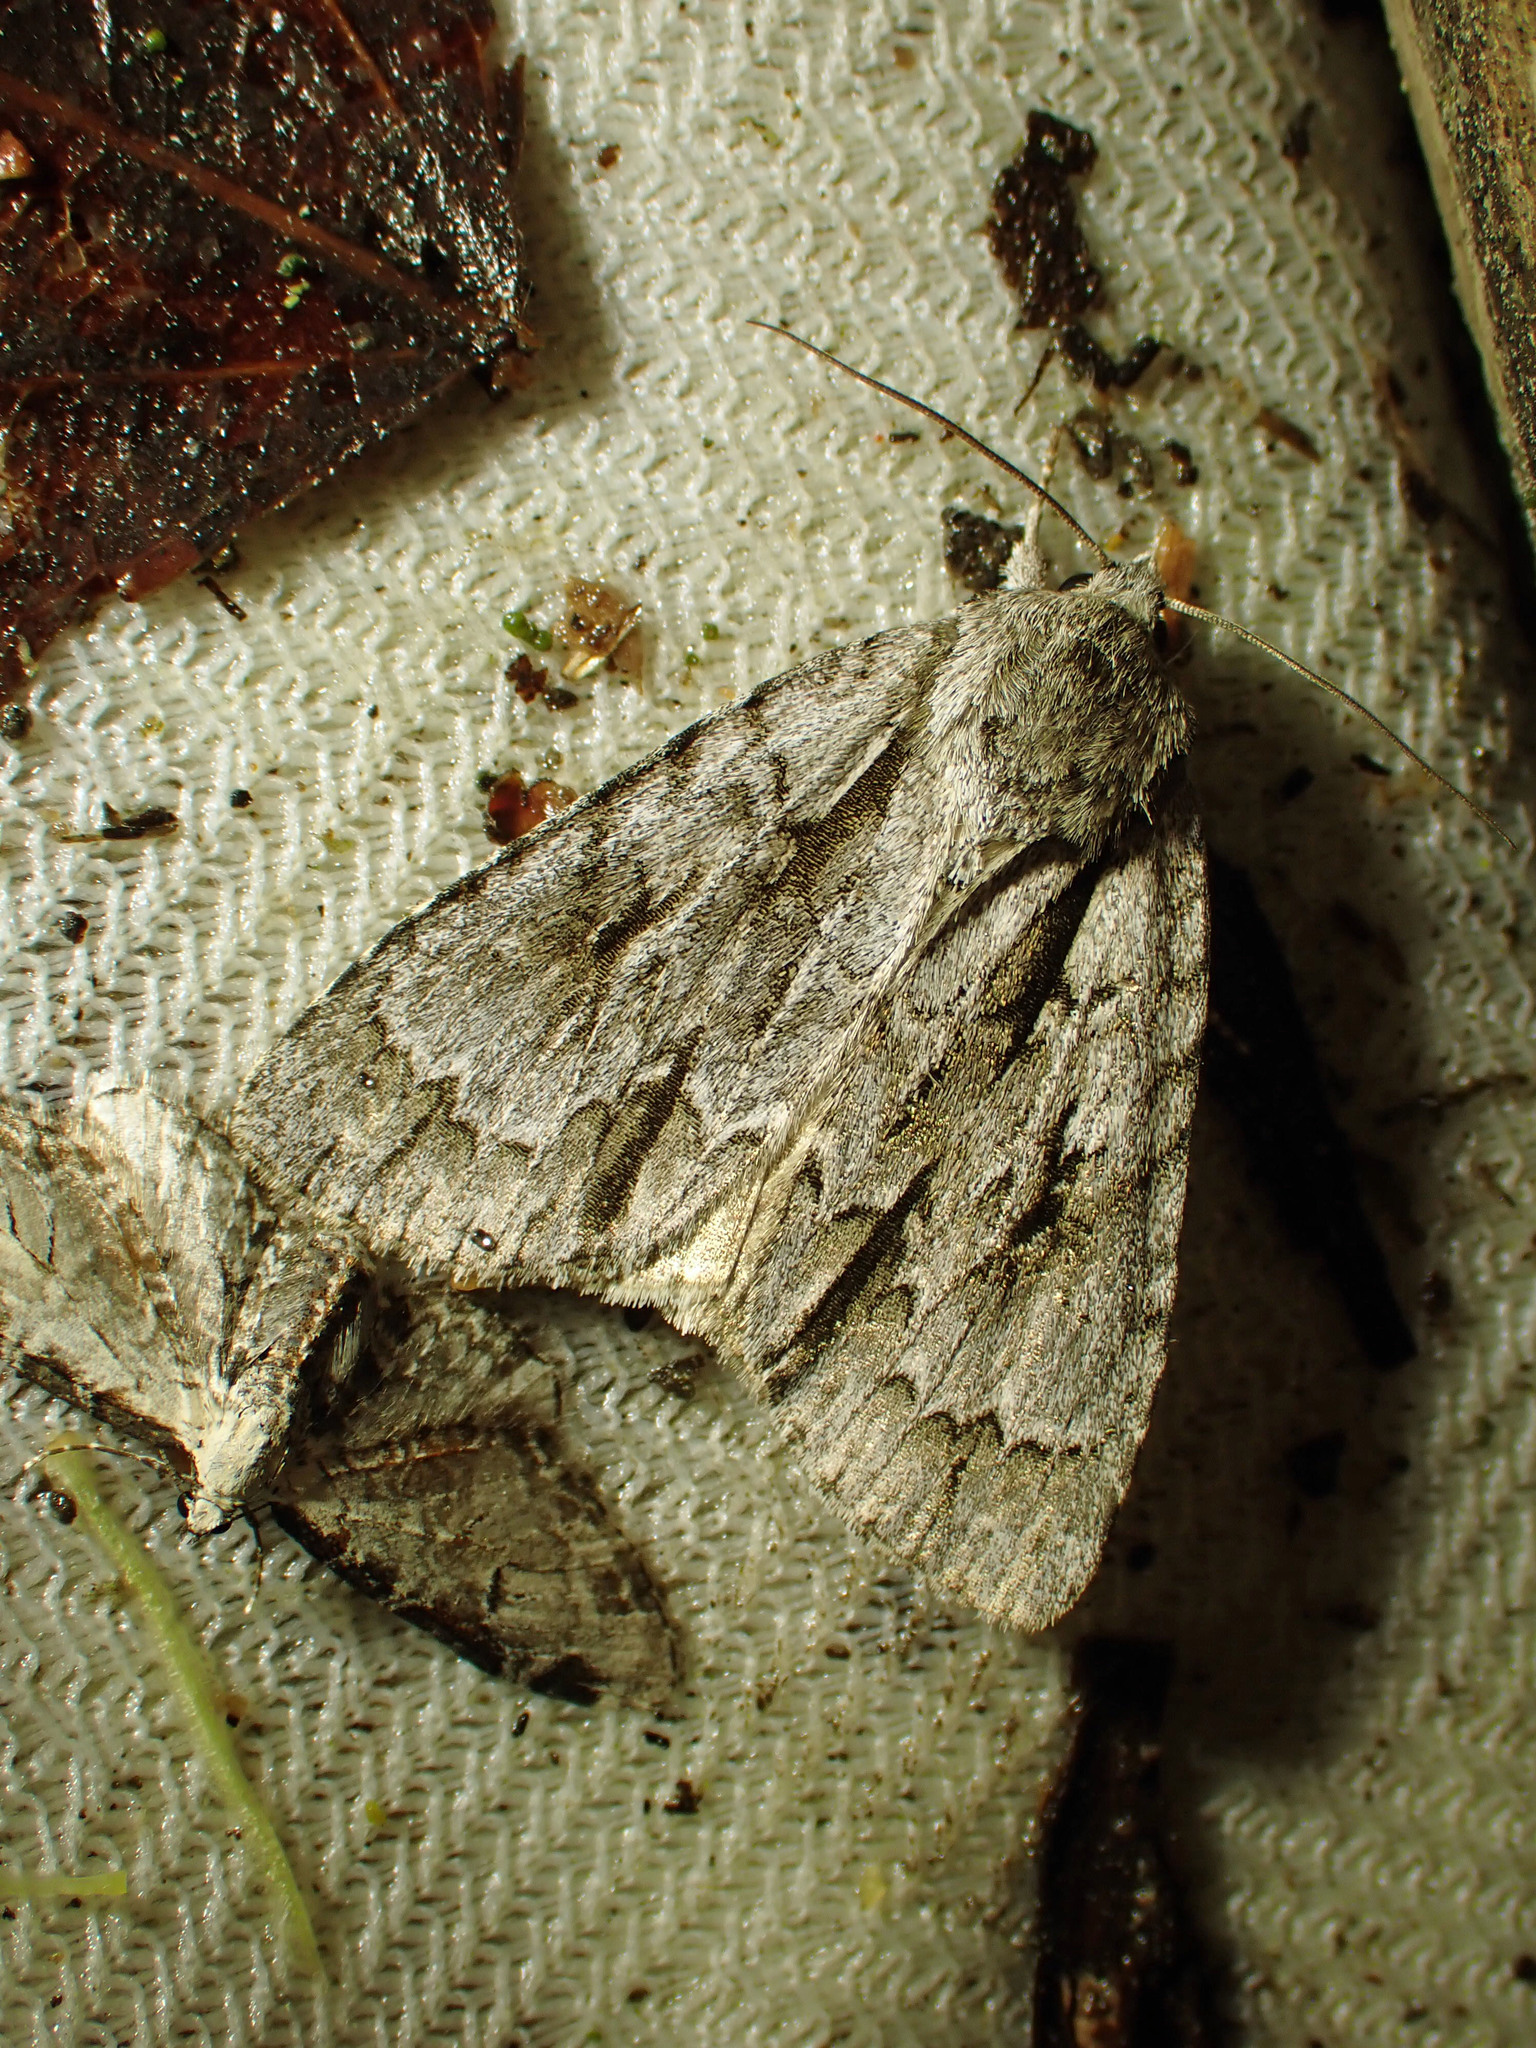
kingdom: Animalia
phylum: Arthropoda
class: Insecta
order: Lepidoptera
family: Noctuidae
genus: Acronicta
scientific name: Acronicta hasta
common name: Cherry dagger
